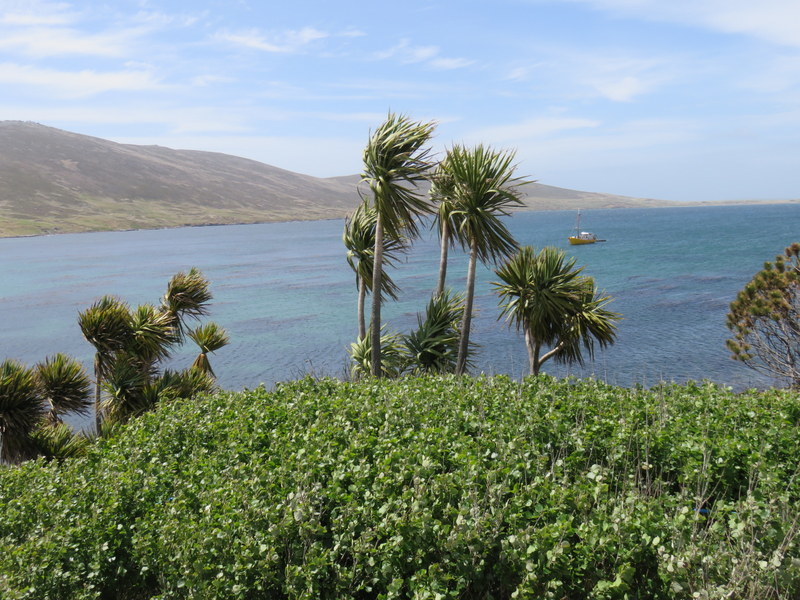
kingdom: Plantae
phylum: Tracheophyta
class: Liliopsida
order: Asparagales
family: Asparagaceae
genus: Cordyline
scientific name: Cordyline australis
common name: Cabbage-palm
